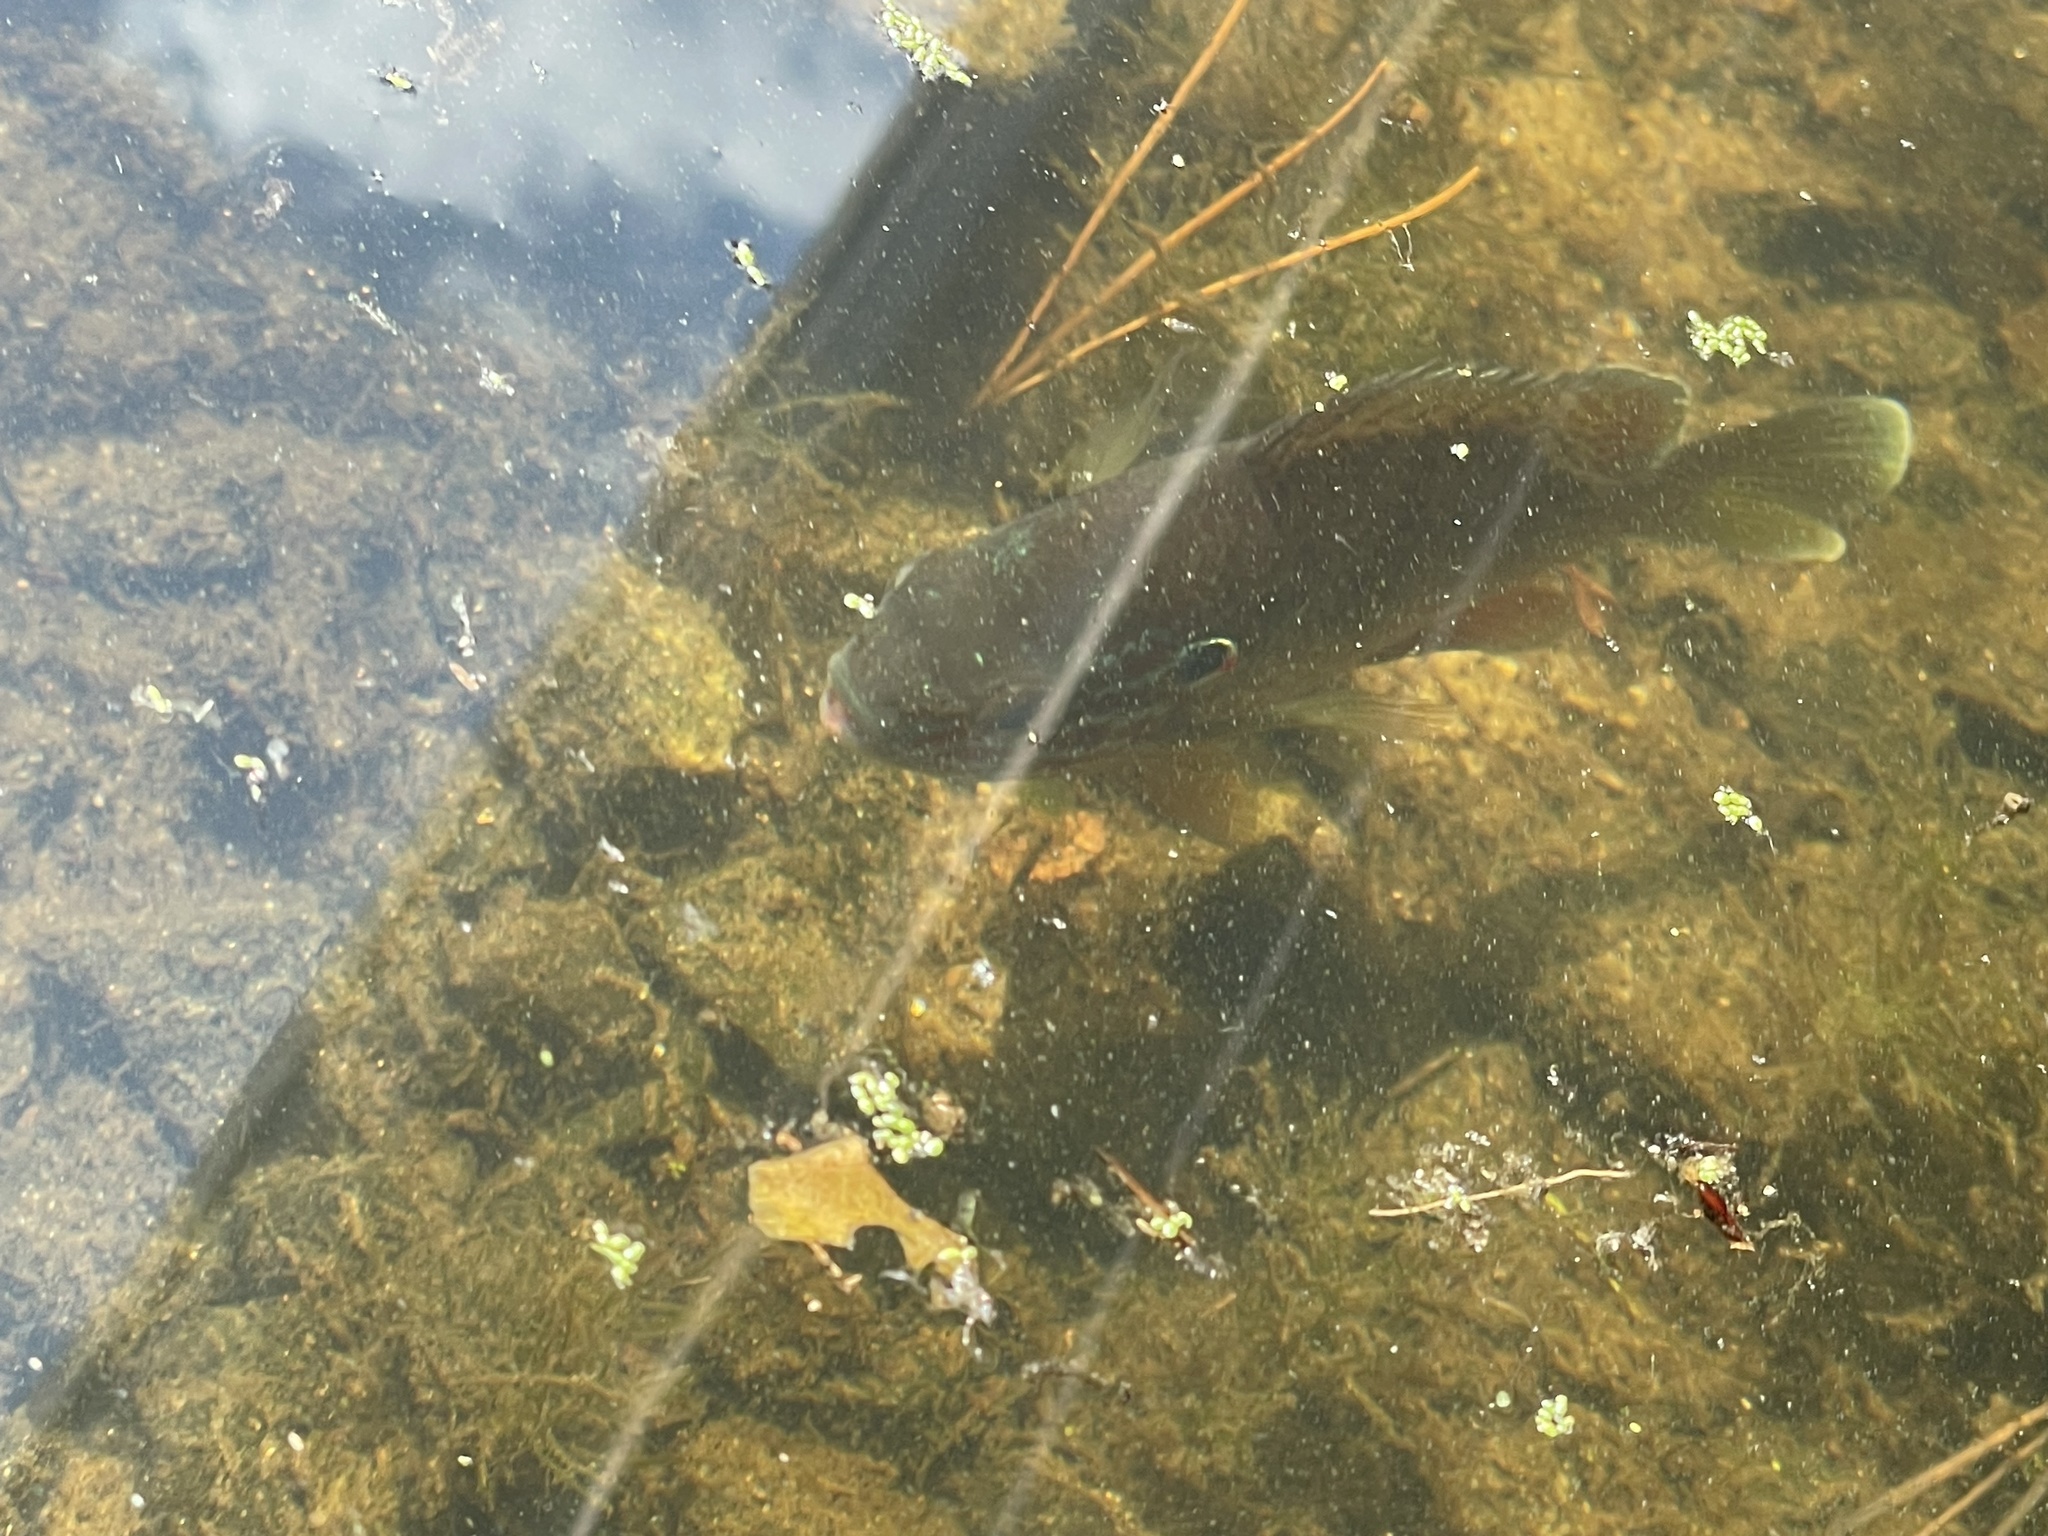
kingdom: Animalia
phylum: Chordata
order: Perciformes
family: Centrarchidae
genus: Lepomis
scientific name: Lepomis gibbosus
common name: Pumpkinseed
